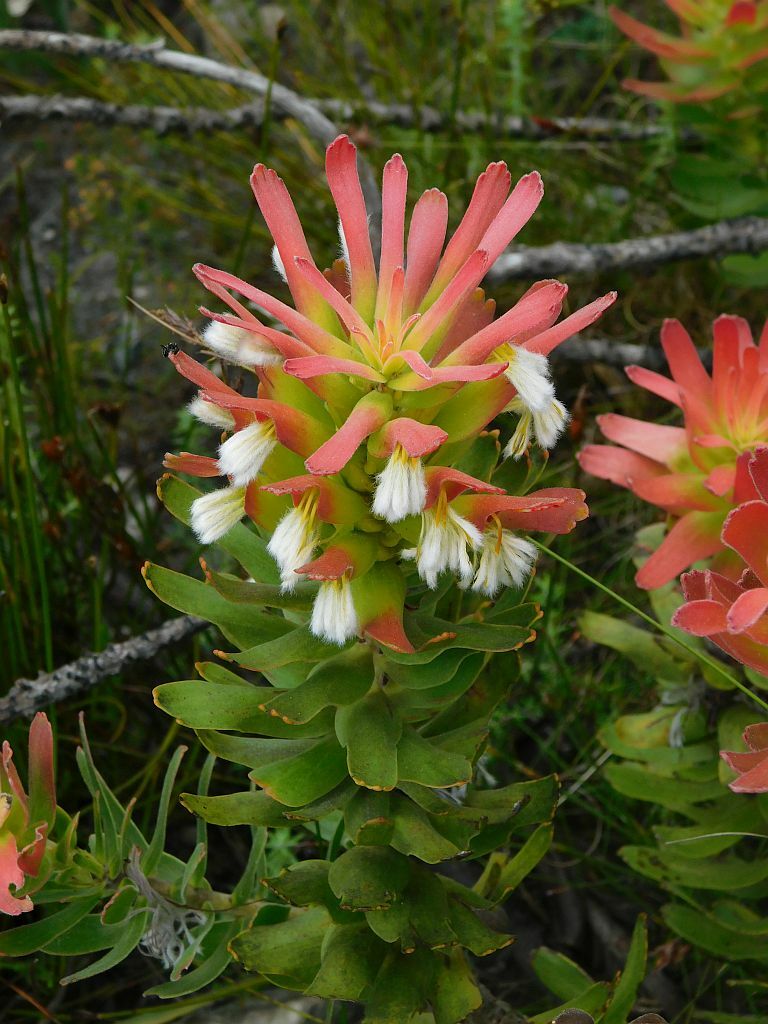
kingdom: Plantae
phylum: Tracheophyta
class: Magnoliopsida
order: Proteales
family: Proteaceae
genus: Mimetes
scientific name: Mimetes cucullatus
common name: Common pagoda
